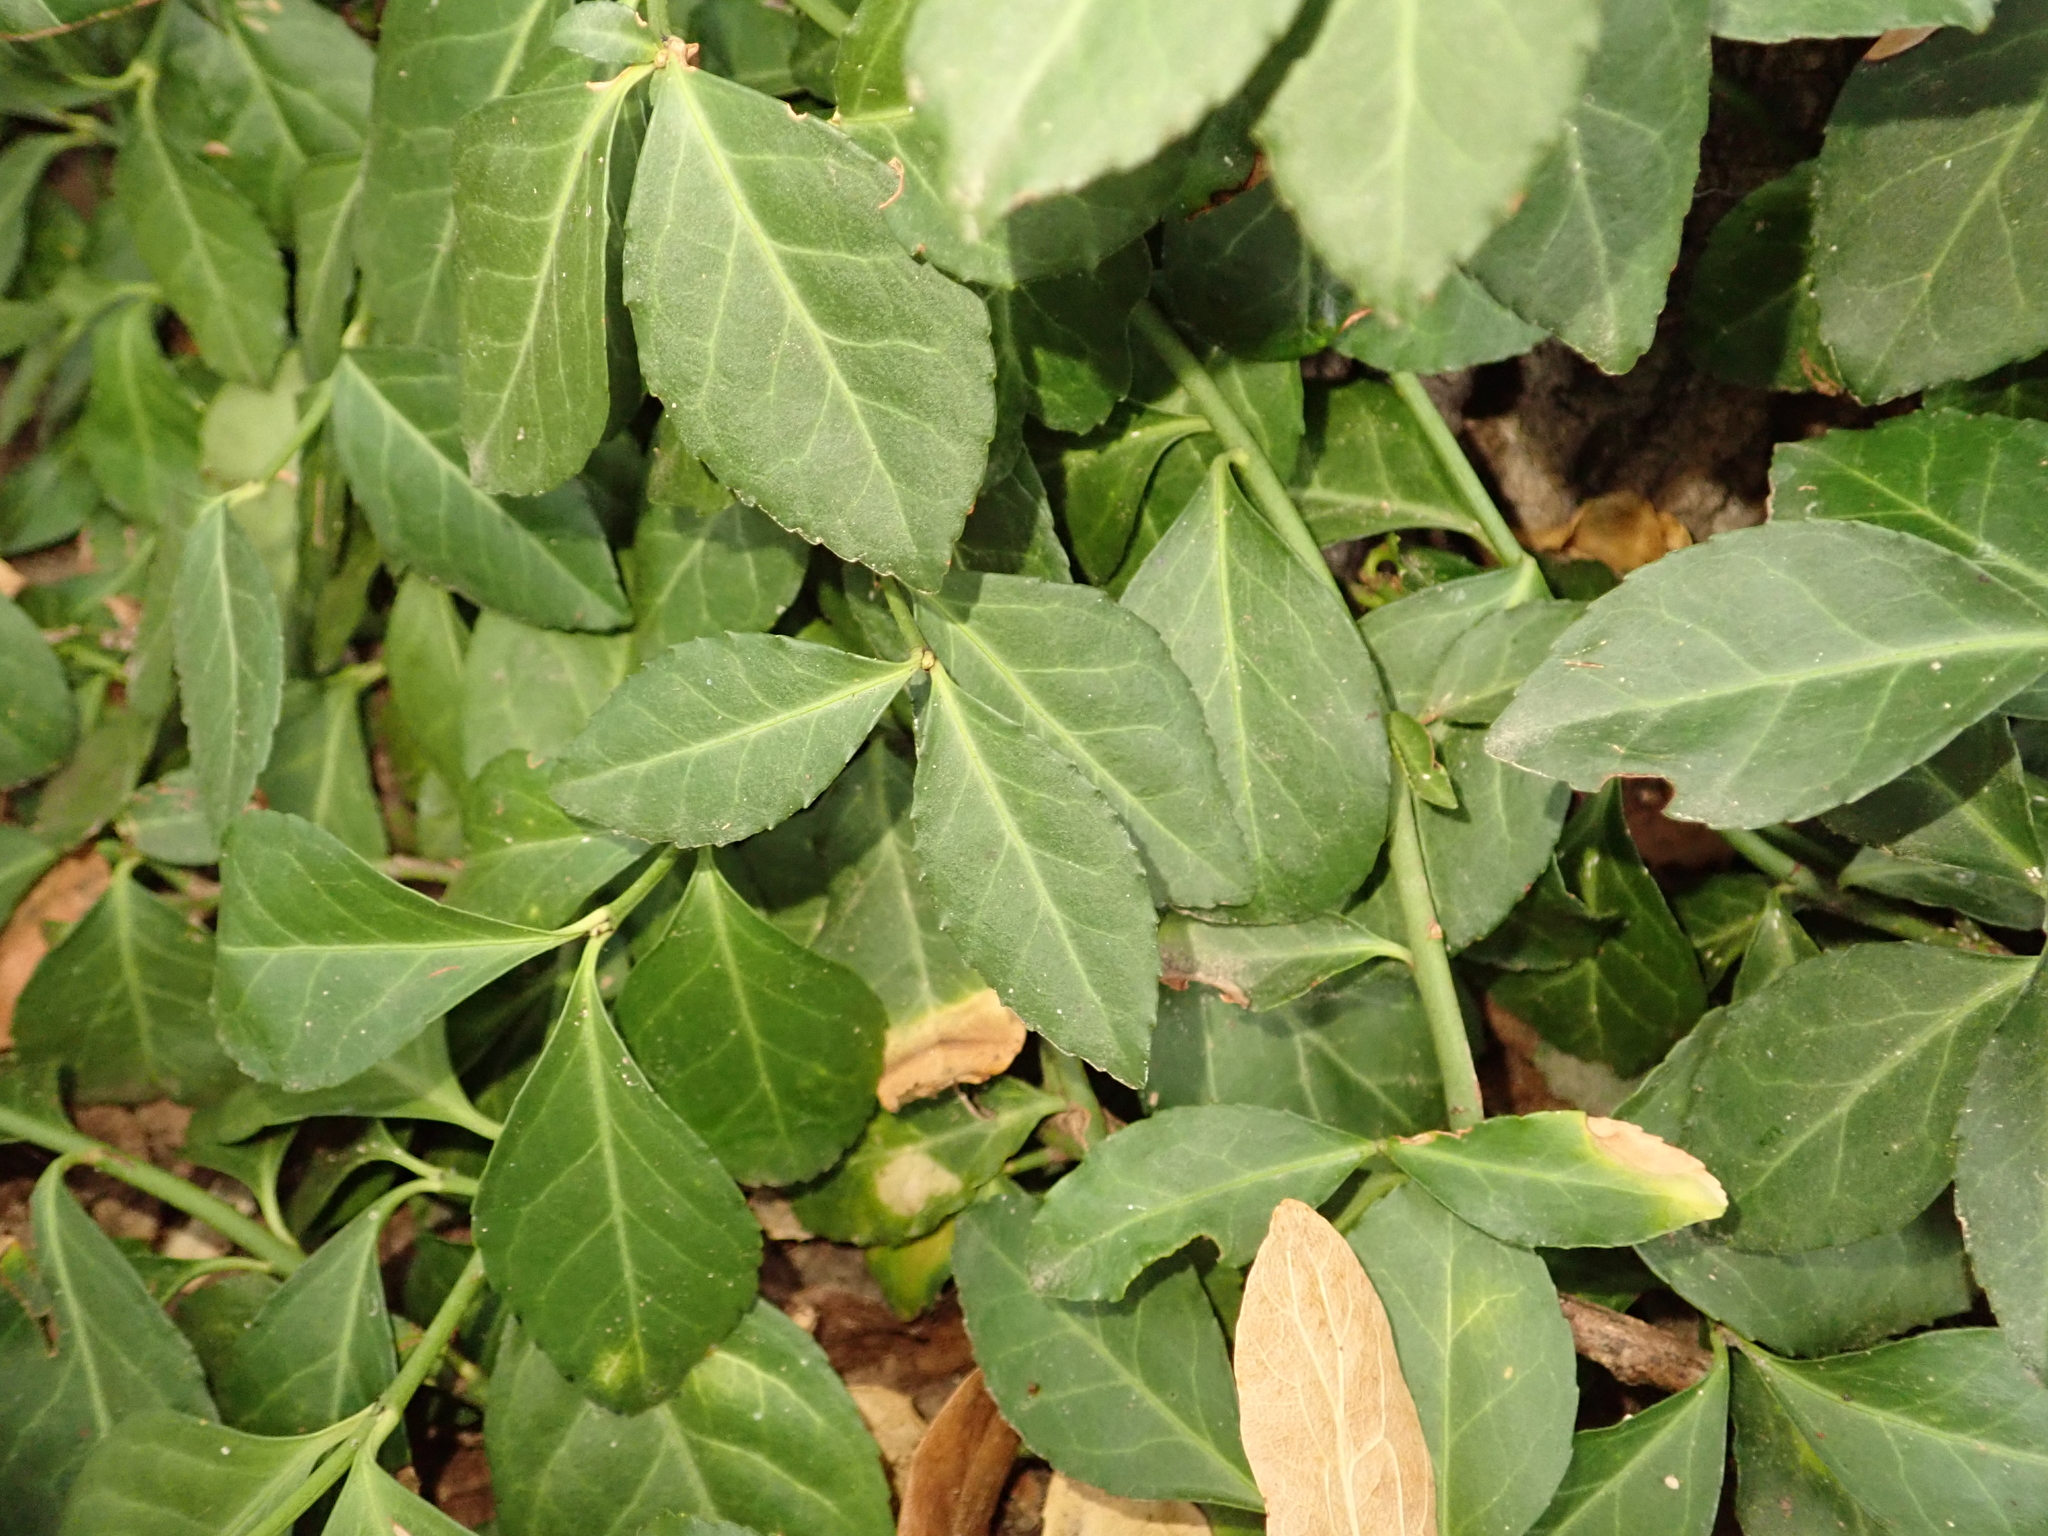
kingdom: Plantae
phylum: Tracheophyta
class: Magnoliopsida
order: Celastrales
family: Celastraceae
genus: Euonymus
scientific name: Euonymus fortunei
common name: Climbing euonymus
